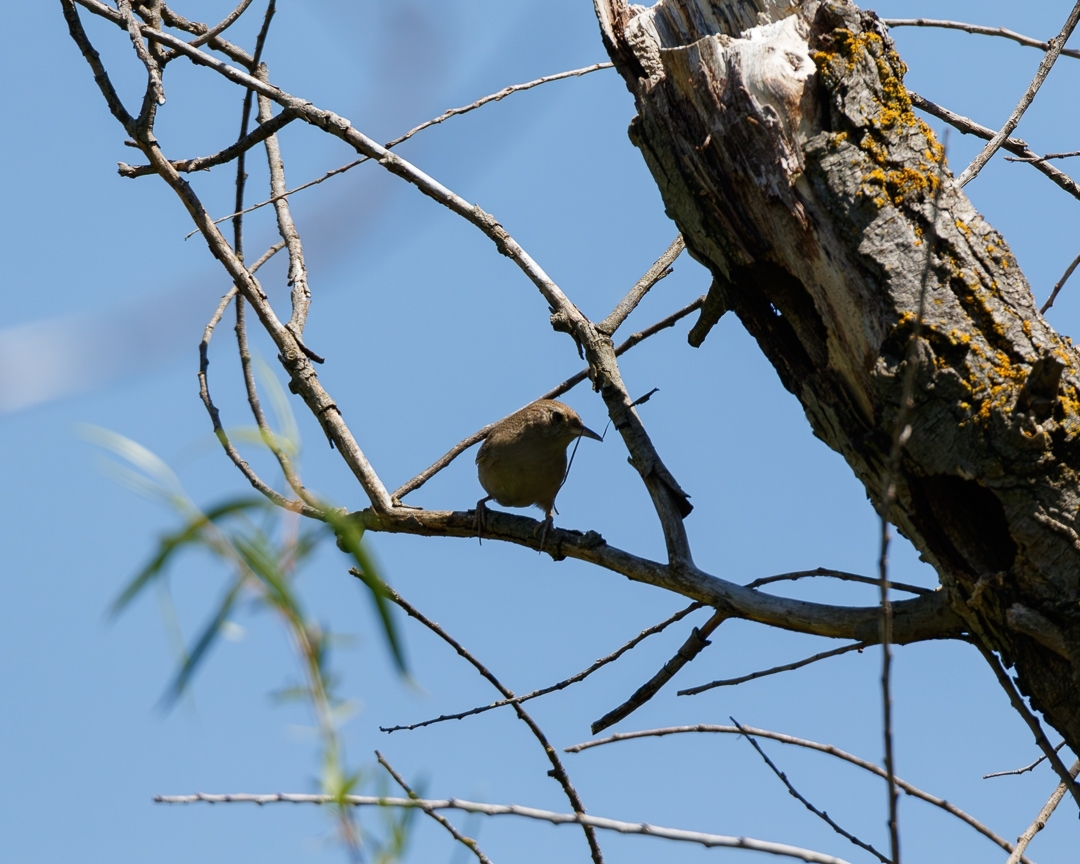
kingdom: Animalia
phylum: Chordata
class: Aves
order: Passeriformes
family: Troglodytidae
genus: Troglodytes
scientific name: Troglodytes aedon
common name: House wren
